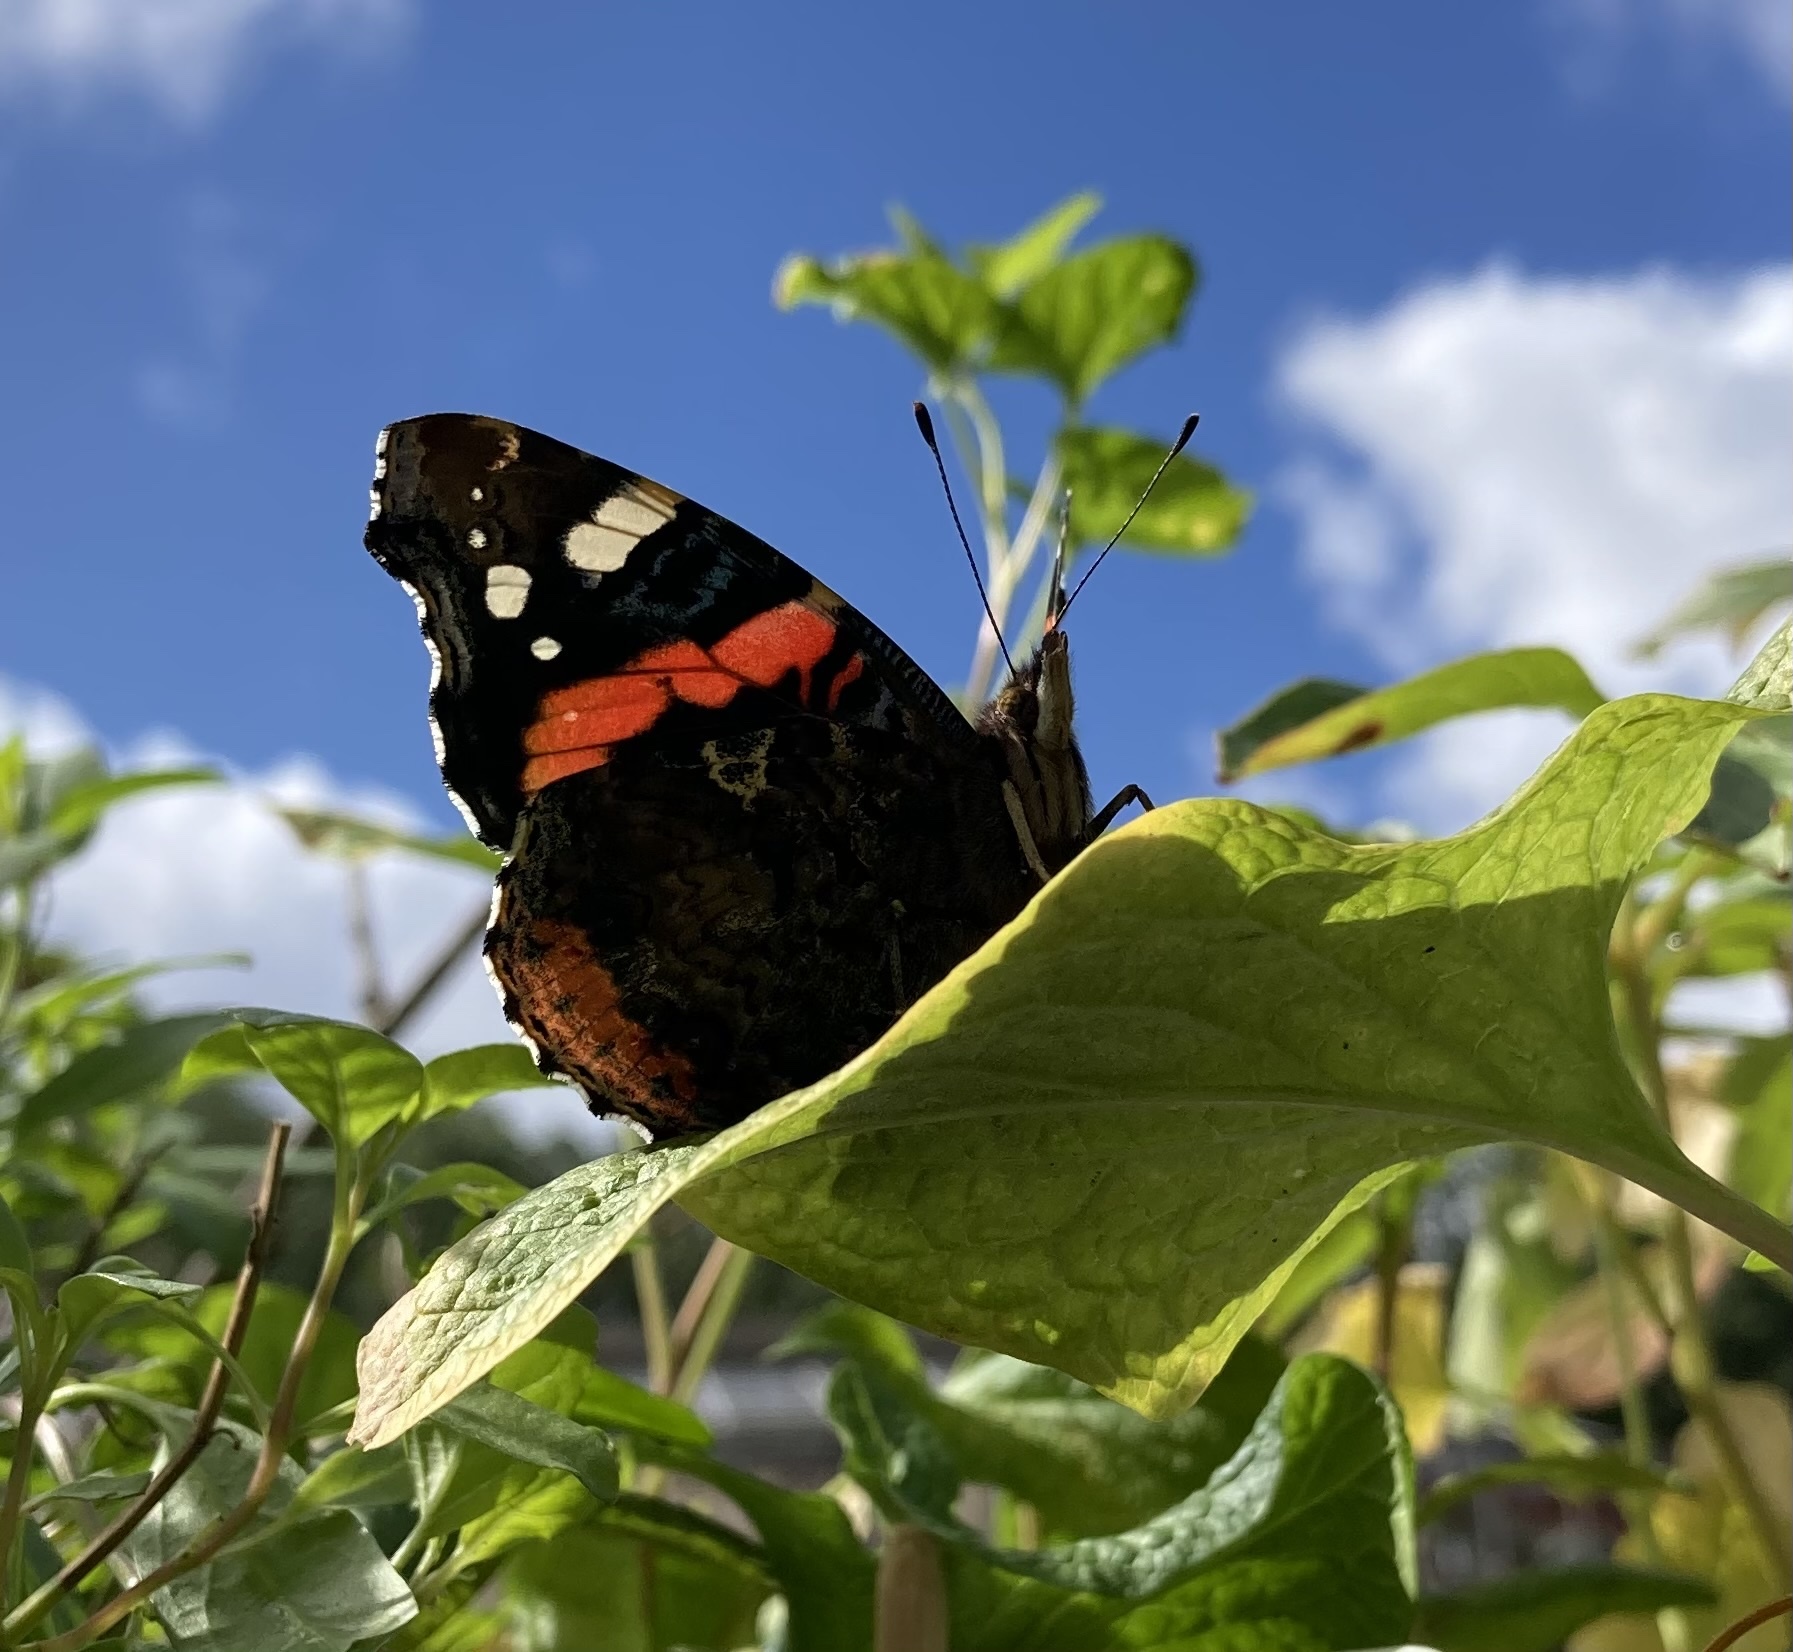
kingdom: Animalia
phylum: Arthropoda
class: Insecta
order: Lepidoptera
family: Nymphalidae
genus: Vanessa
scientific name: Vanessa atalanta
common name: Red admiral
